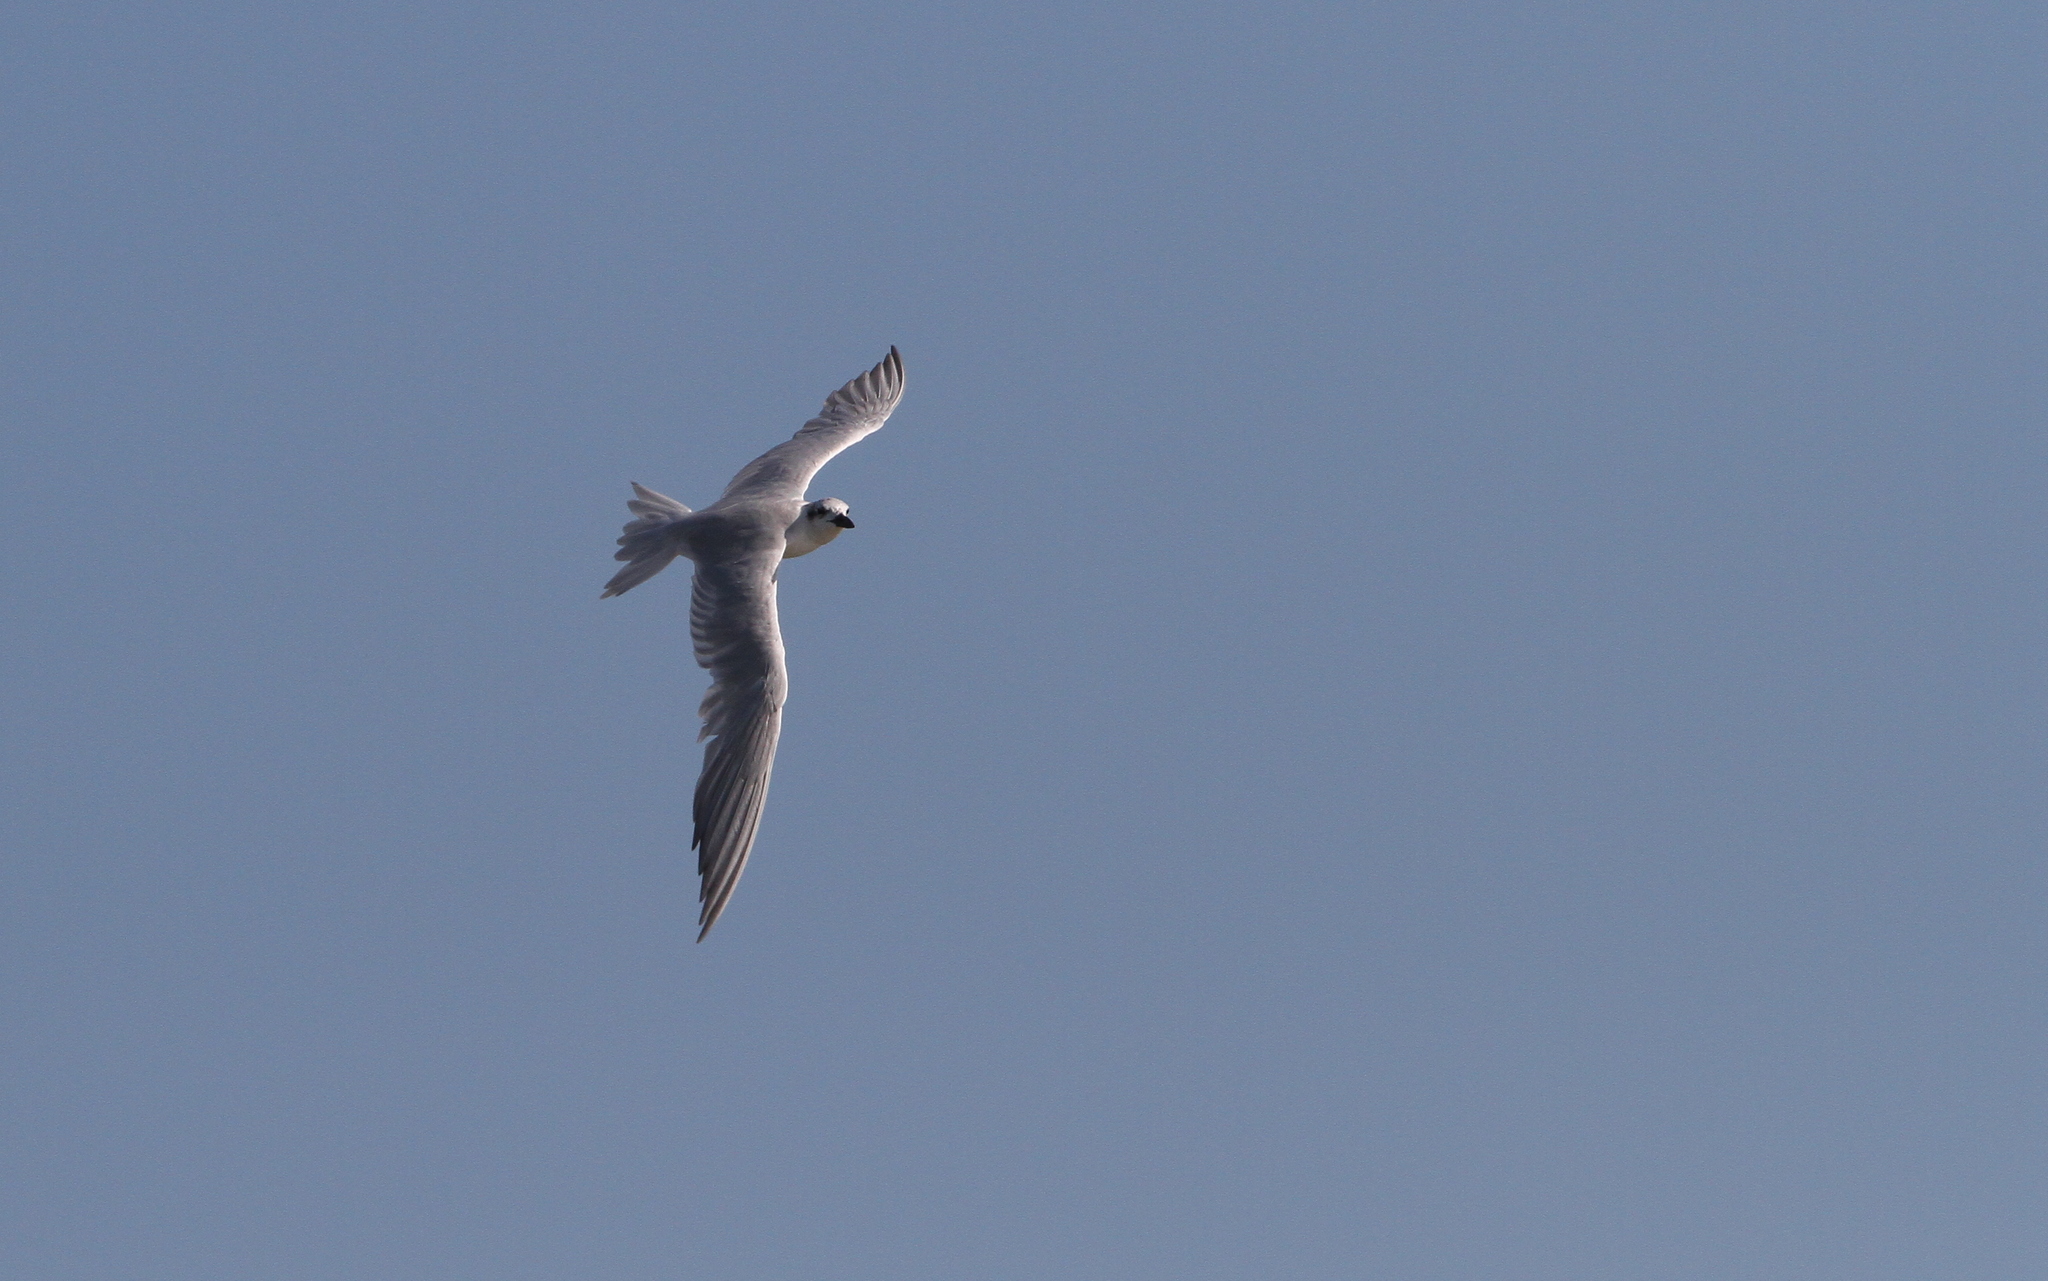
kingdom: Animalia
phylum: Chordata
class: Aves
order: Charadriiformes
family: Laridae
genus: Gelochelidon
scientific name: Gelochelidon nilotica
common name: Gull-billed tern
